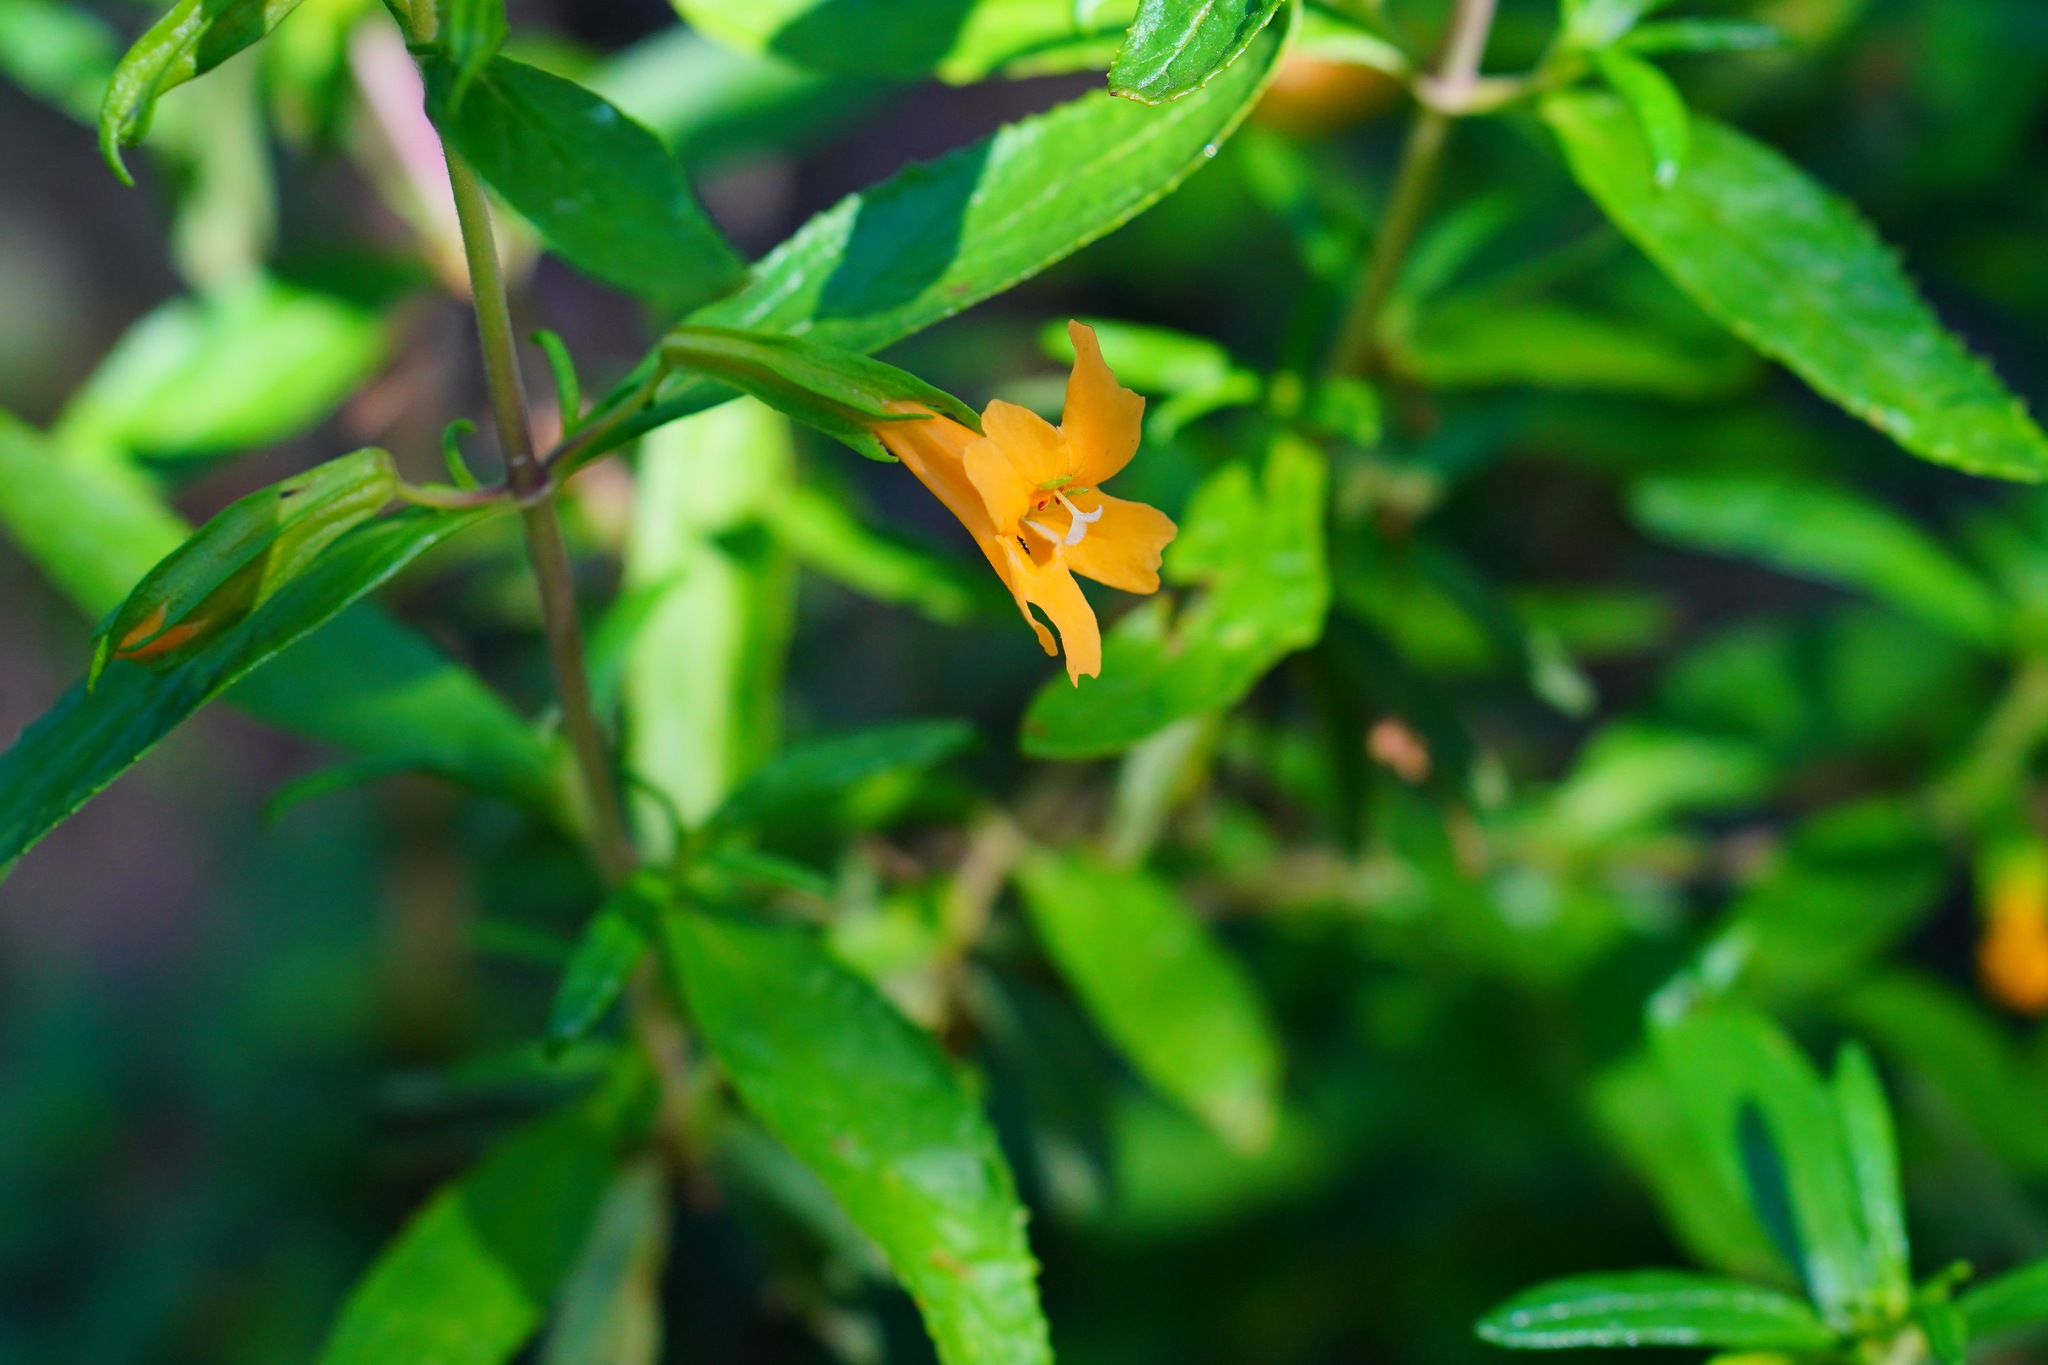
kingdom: Plantae
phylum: Tracheophyta
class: Magnoliopsida
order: Lamiales
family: Phrymaceae
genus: Diplacus
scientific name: Diplacus aurantiacus
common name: Bush monkey-flower
